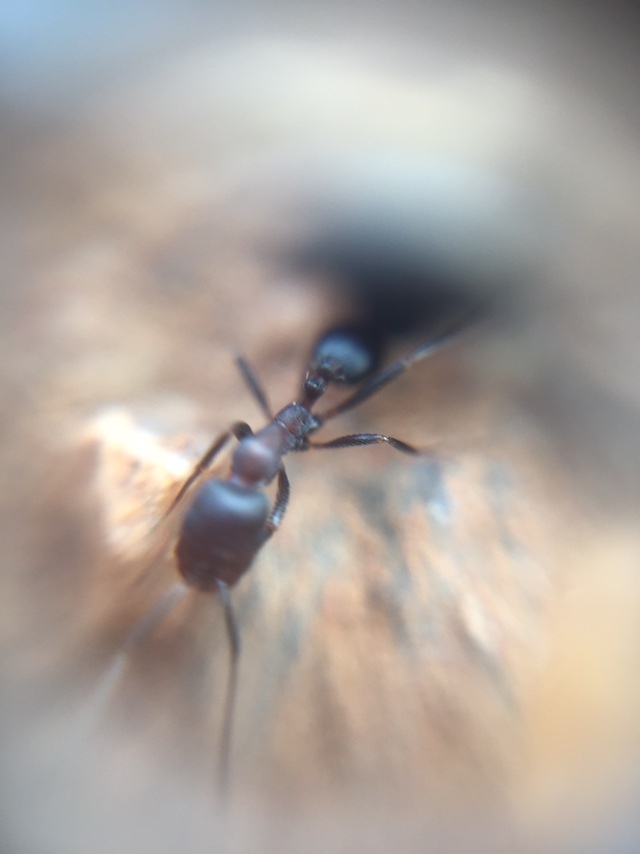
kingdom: Animalia
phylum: Arthropoda
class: Insecta
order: Hymenoptera
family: Formicidae
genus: Monomorium
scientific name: Monomorium indicum
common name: Ant
